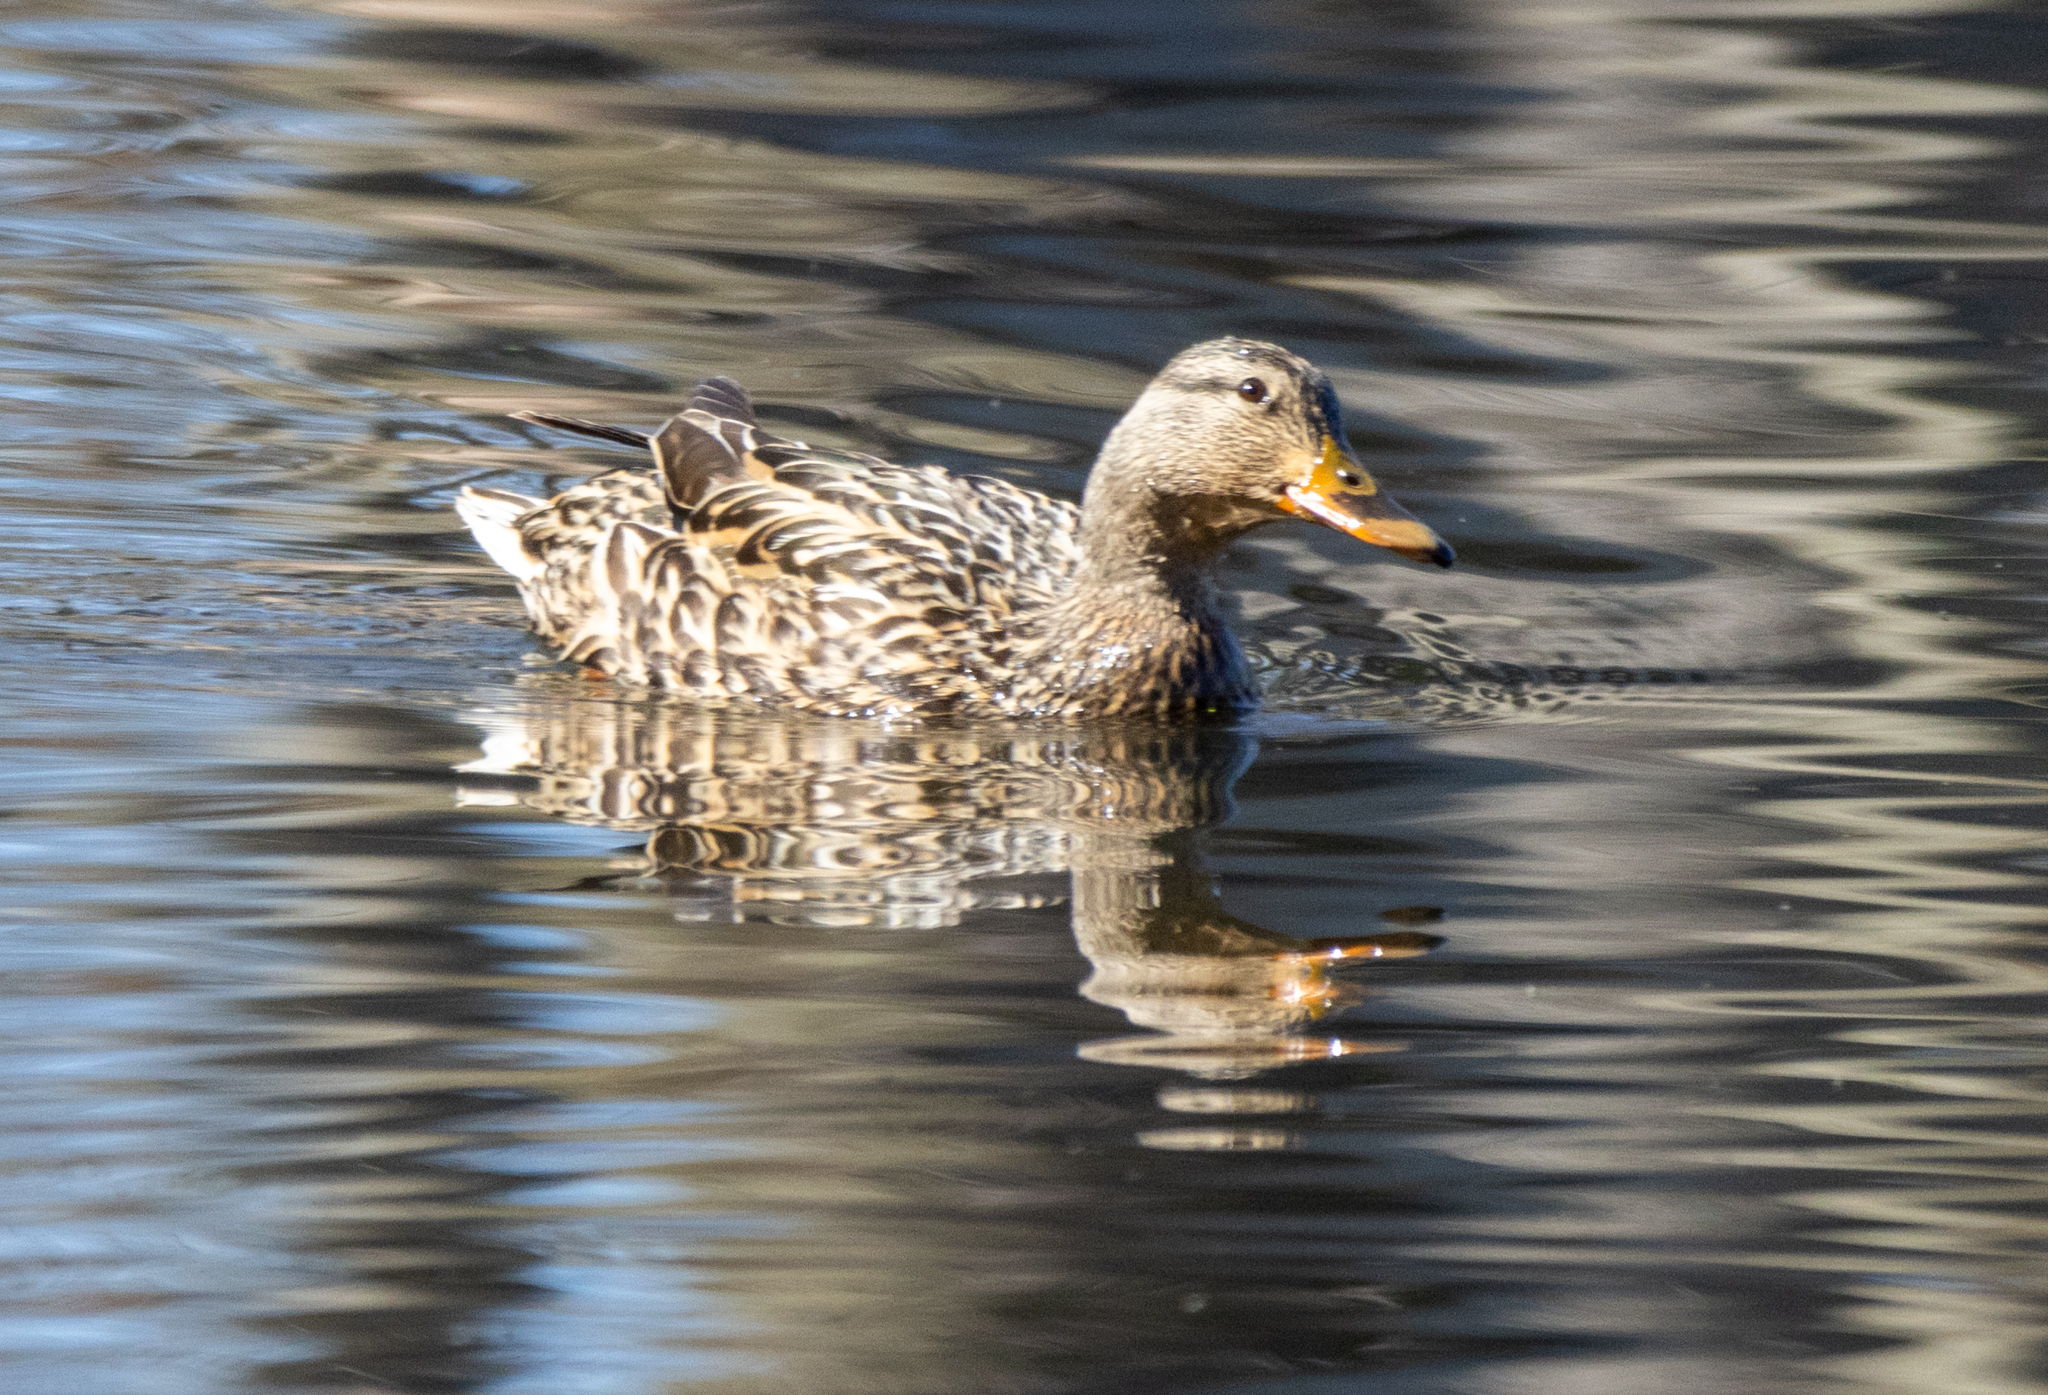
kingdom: Animalia
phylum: Chordata
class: Aves
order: Anseriformes
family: Anatidae
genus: Anas
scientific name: Anas platyrhynchos
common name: Mallard
